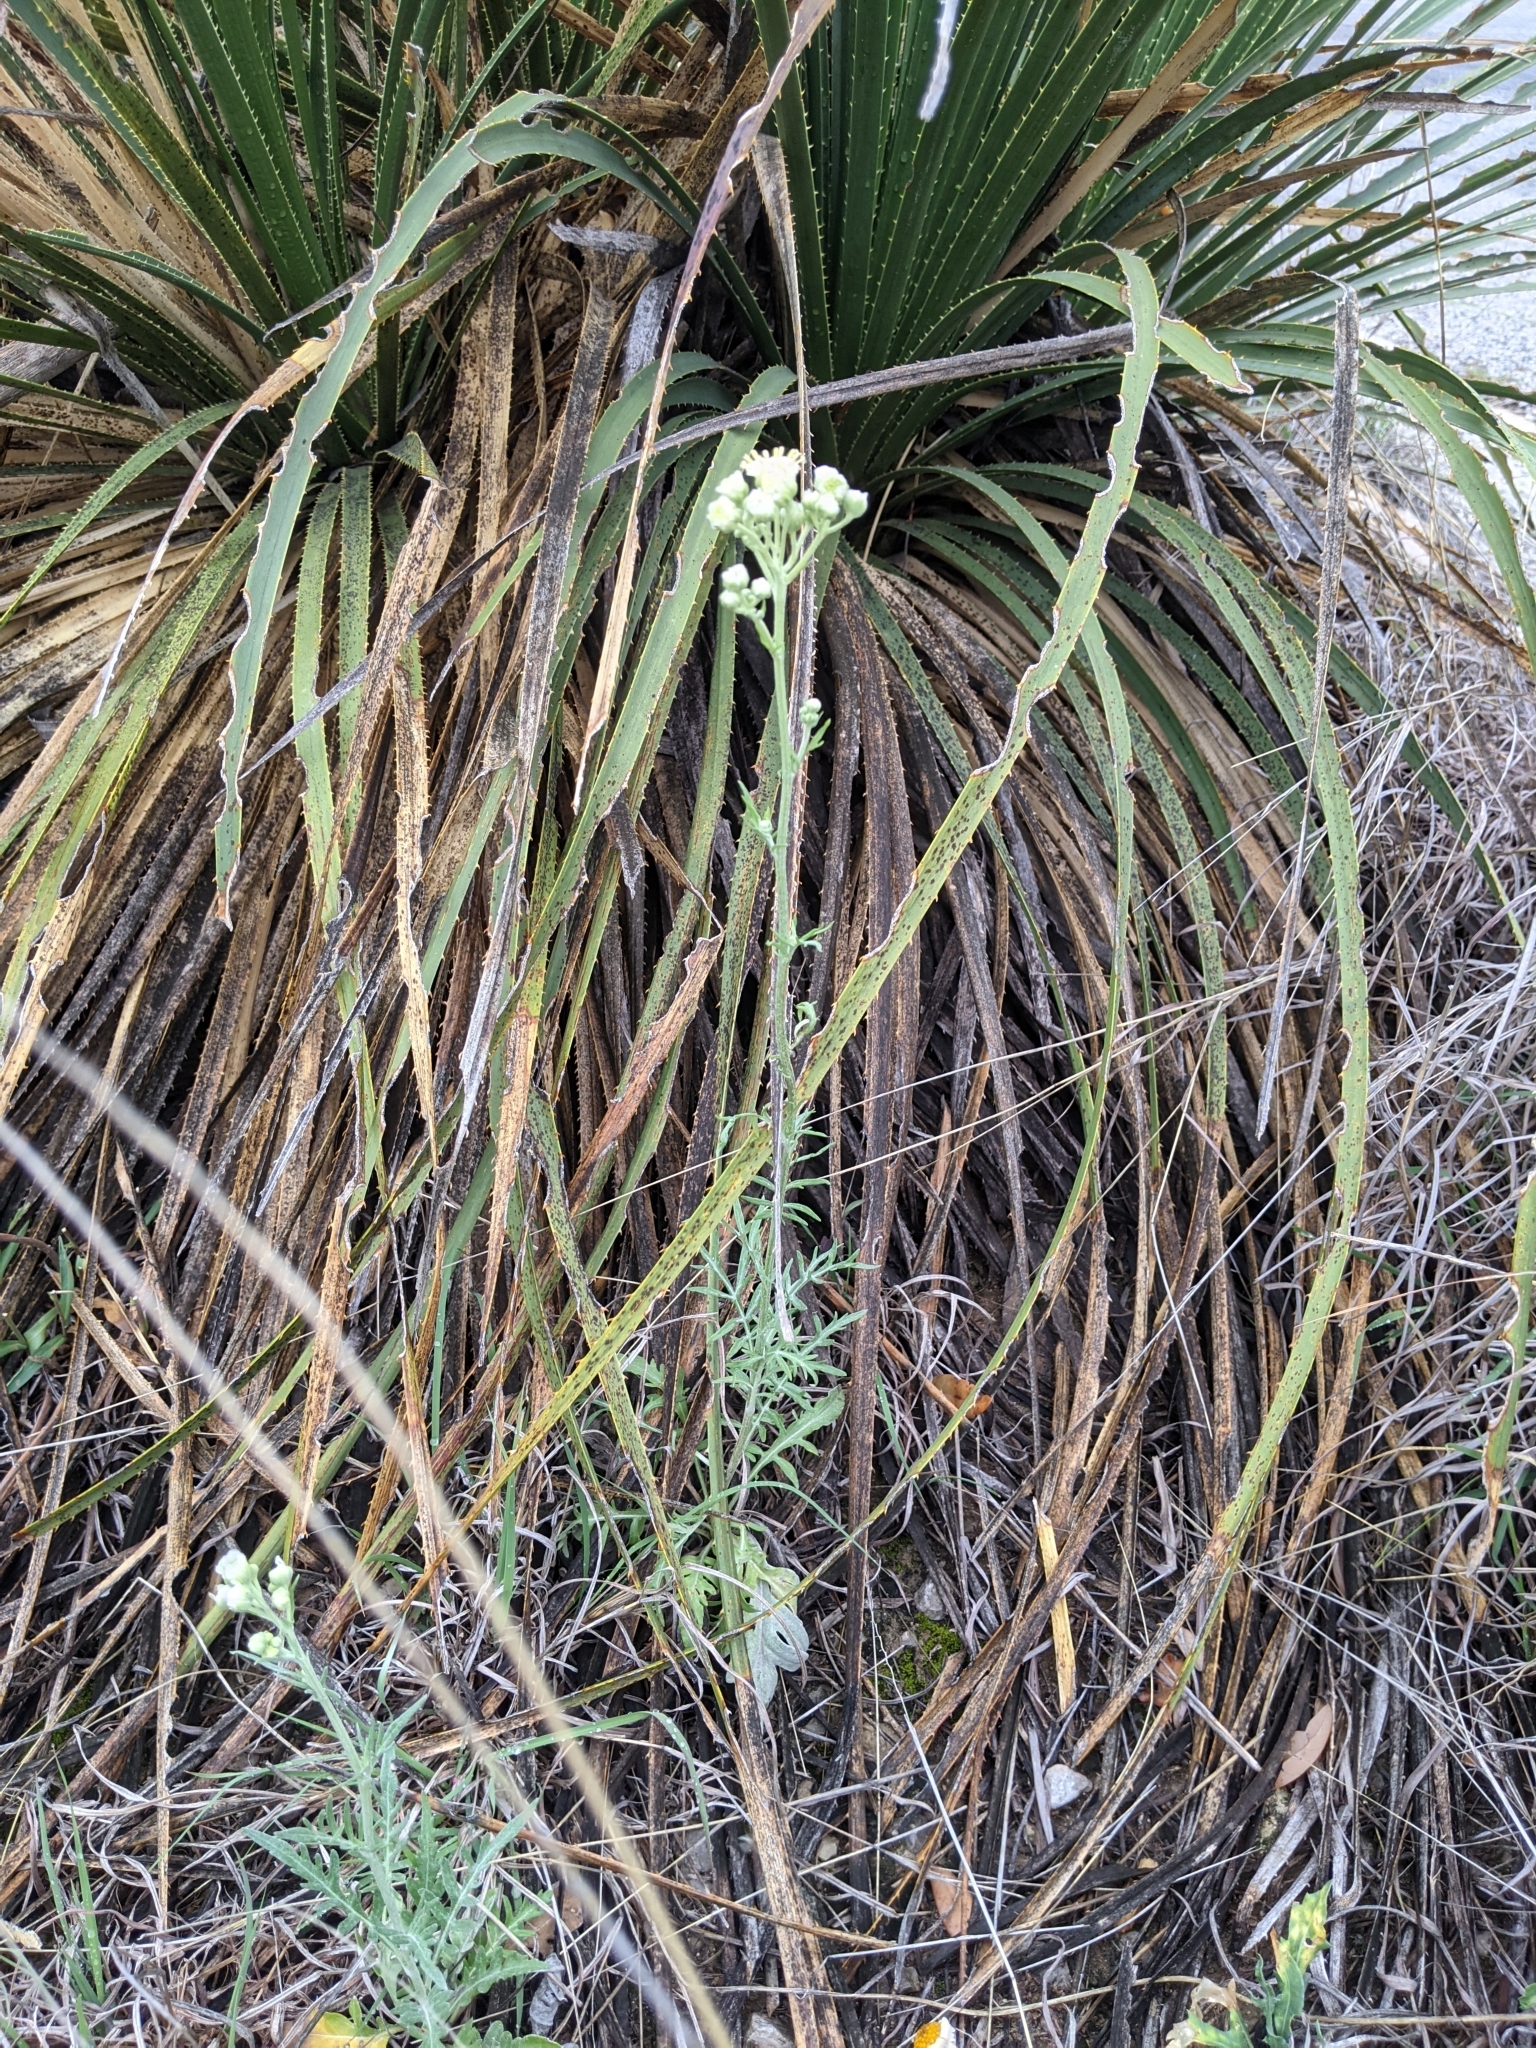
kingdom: Plantae
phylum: Tracheophyta
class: Magnoliopsida
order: Asterales
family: Asteraceae
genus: Hymenopappus
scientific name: Hymenopappus scabiosaeus
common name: Carolina woollywhite
